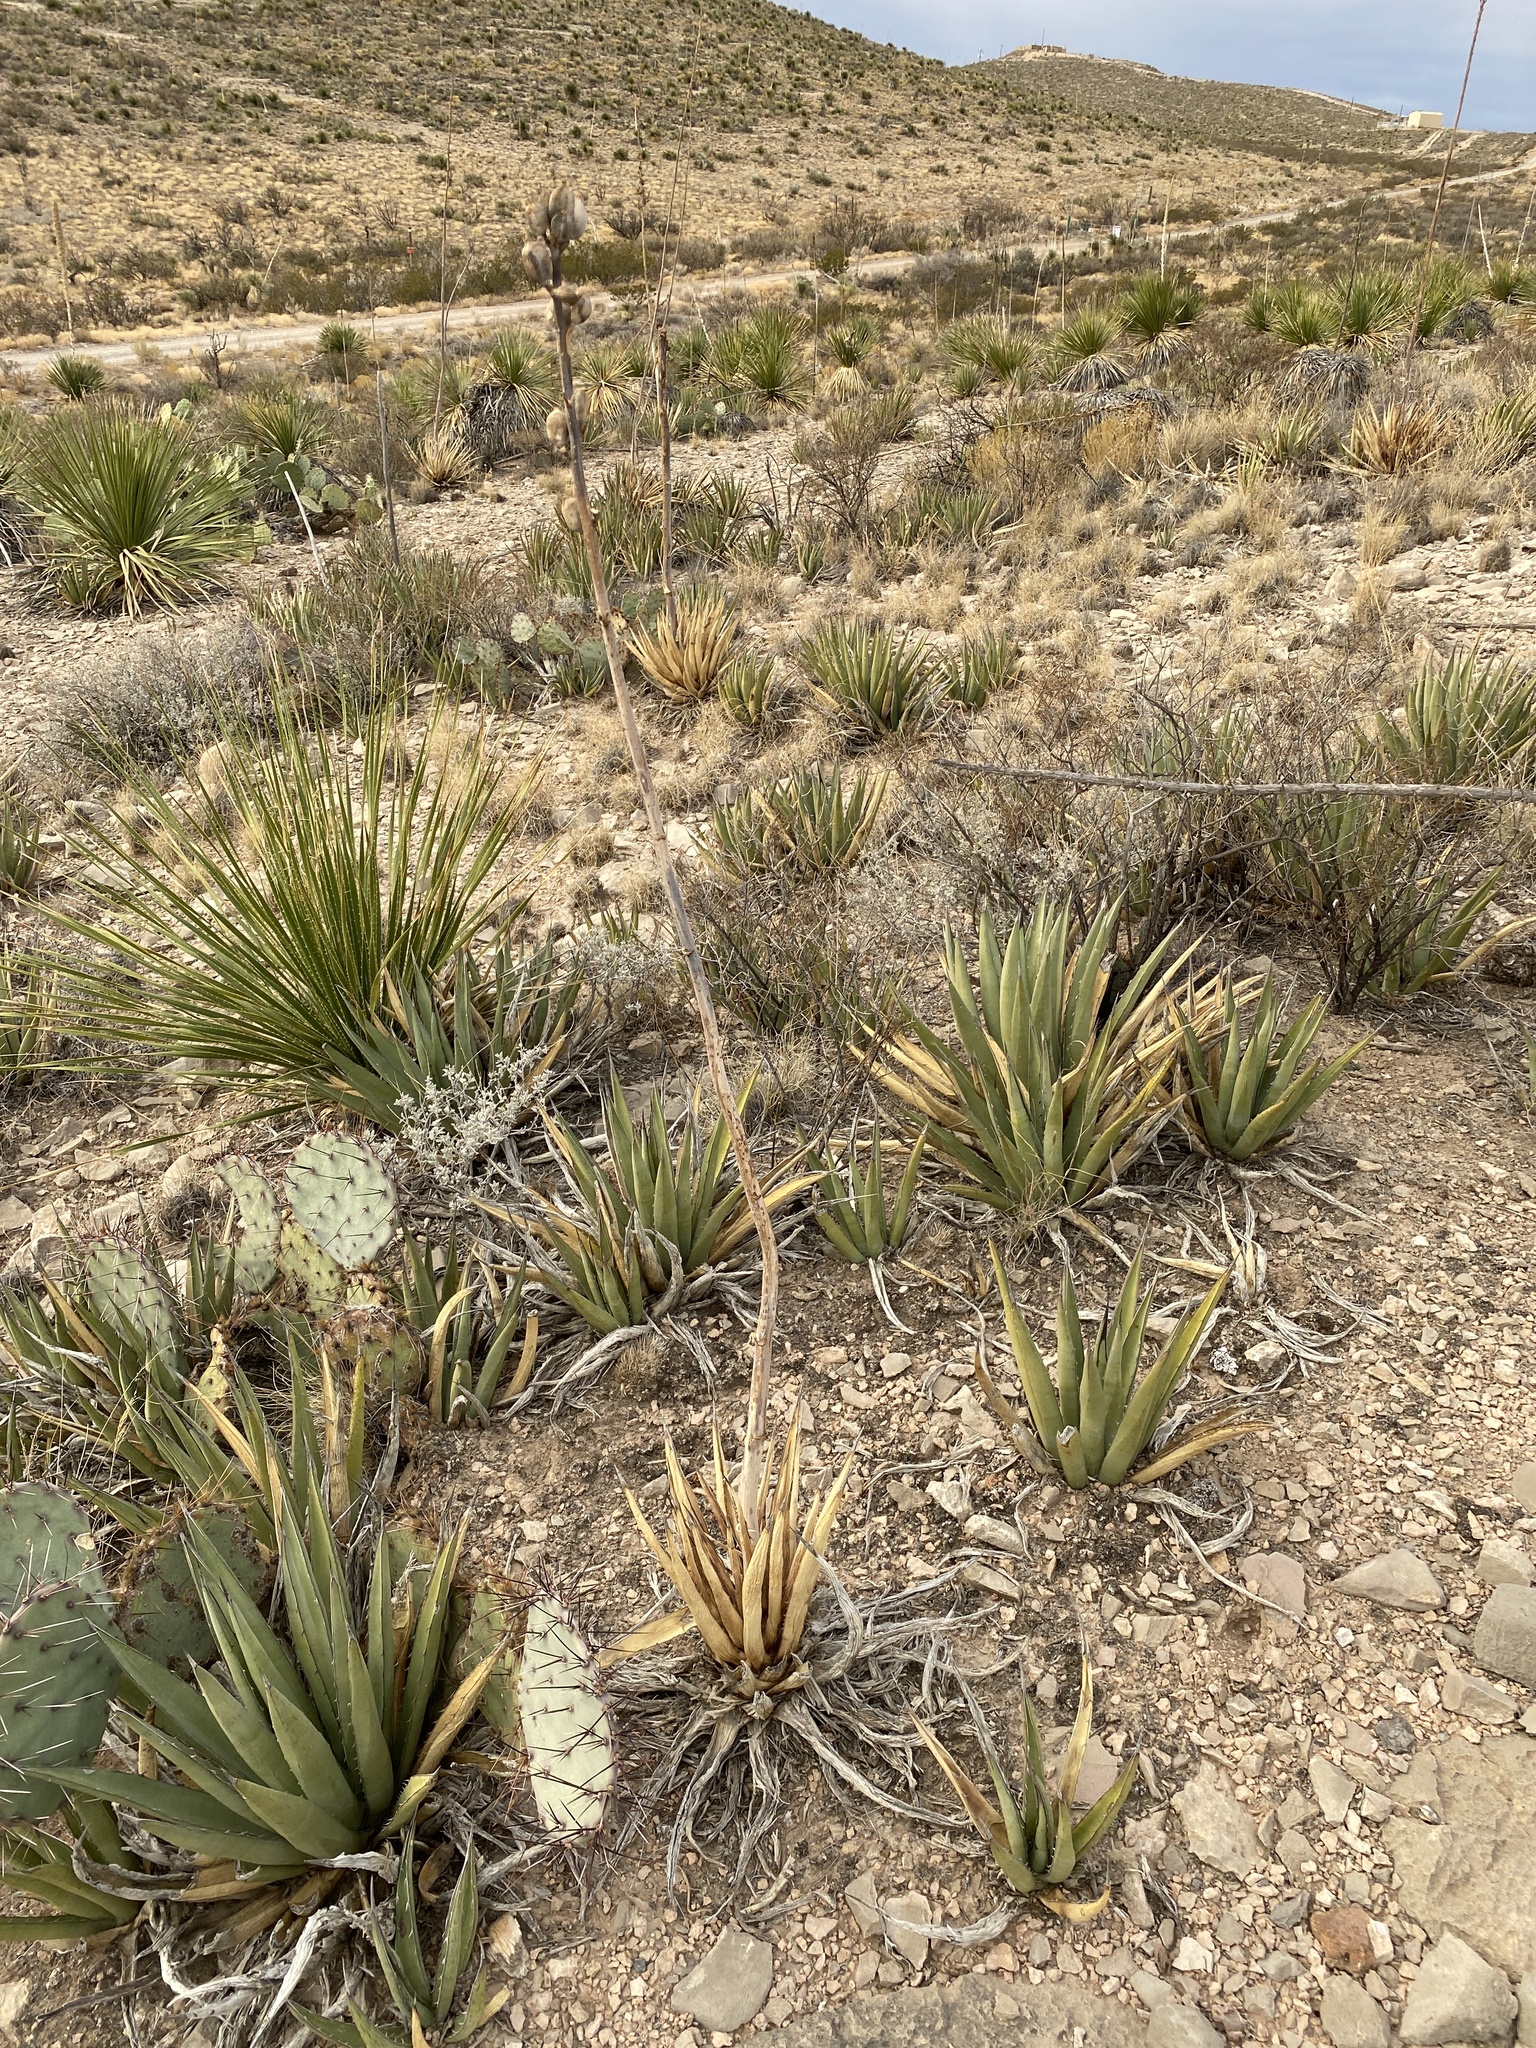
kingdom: Plantae
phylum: Tracheophyta
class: Liliopsida
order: Asparagales
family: Asparagaceae
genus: Agave
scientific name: Agave lechuguilla
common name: Lecheguilla agave
